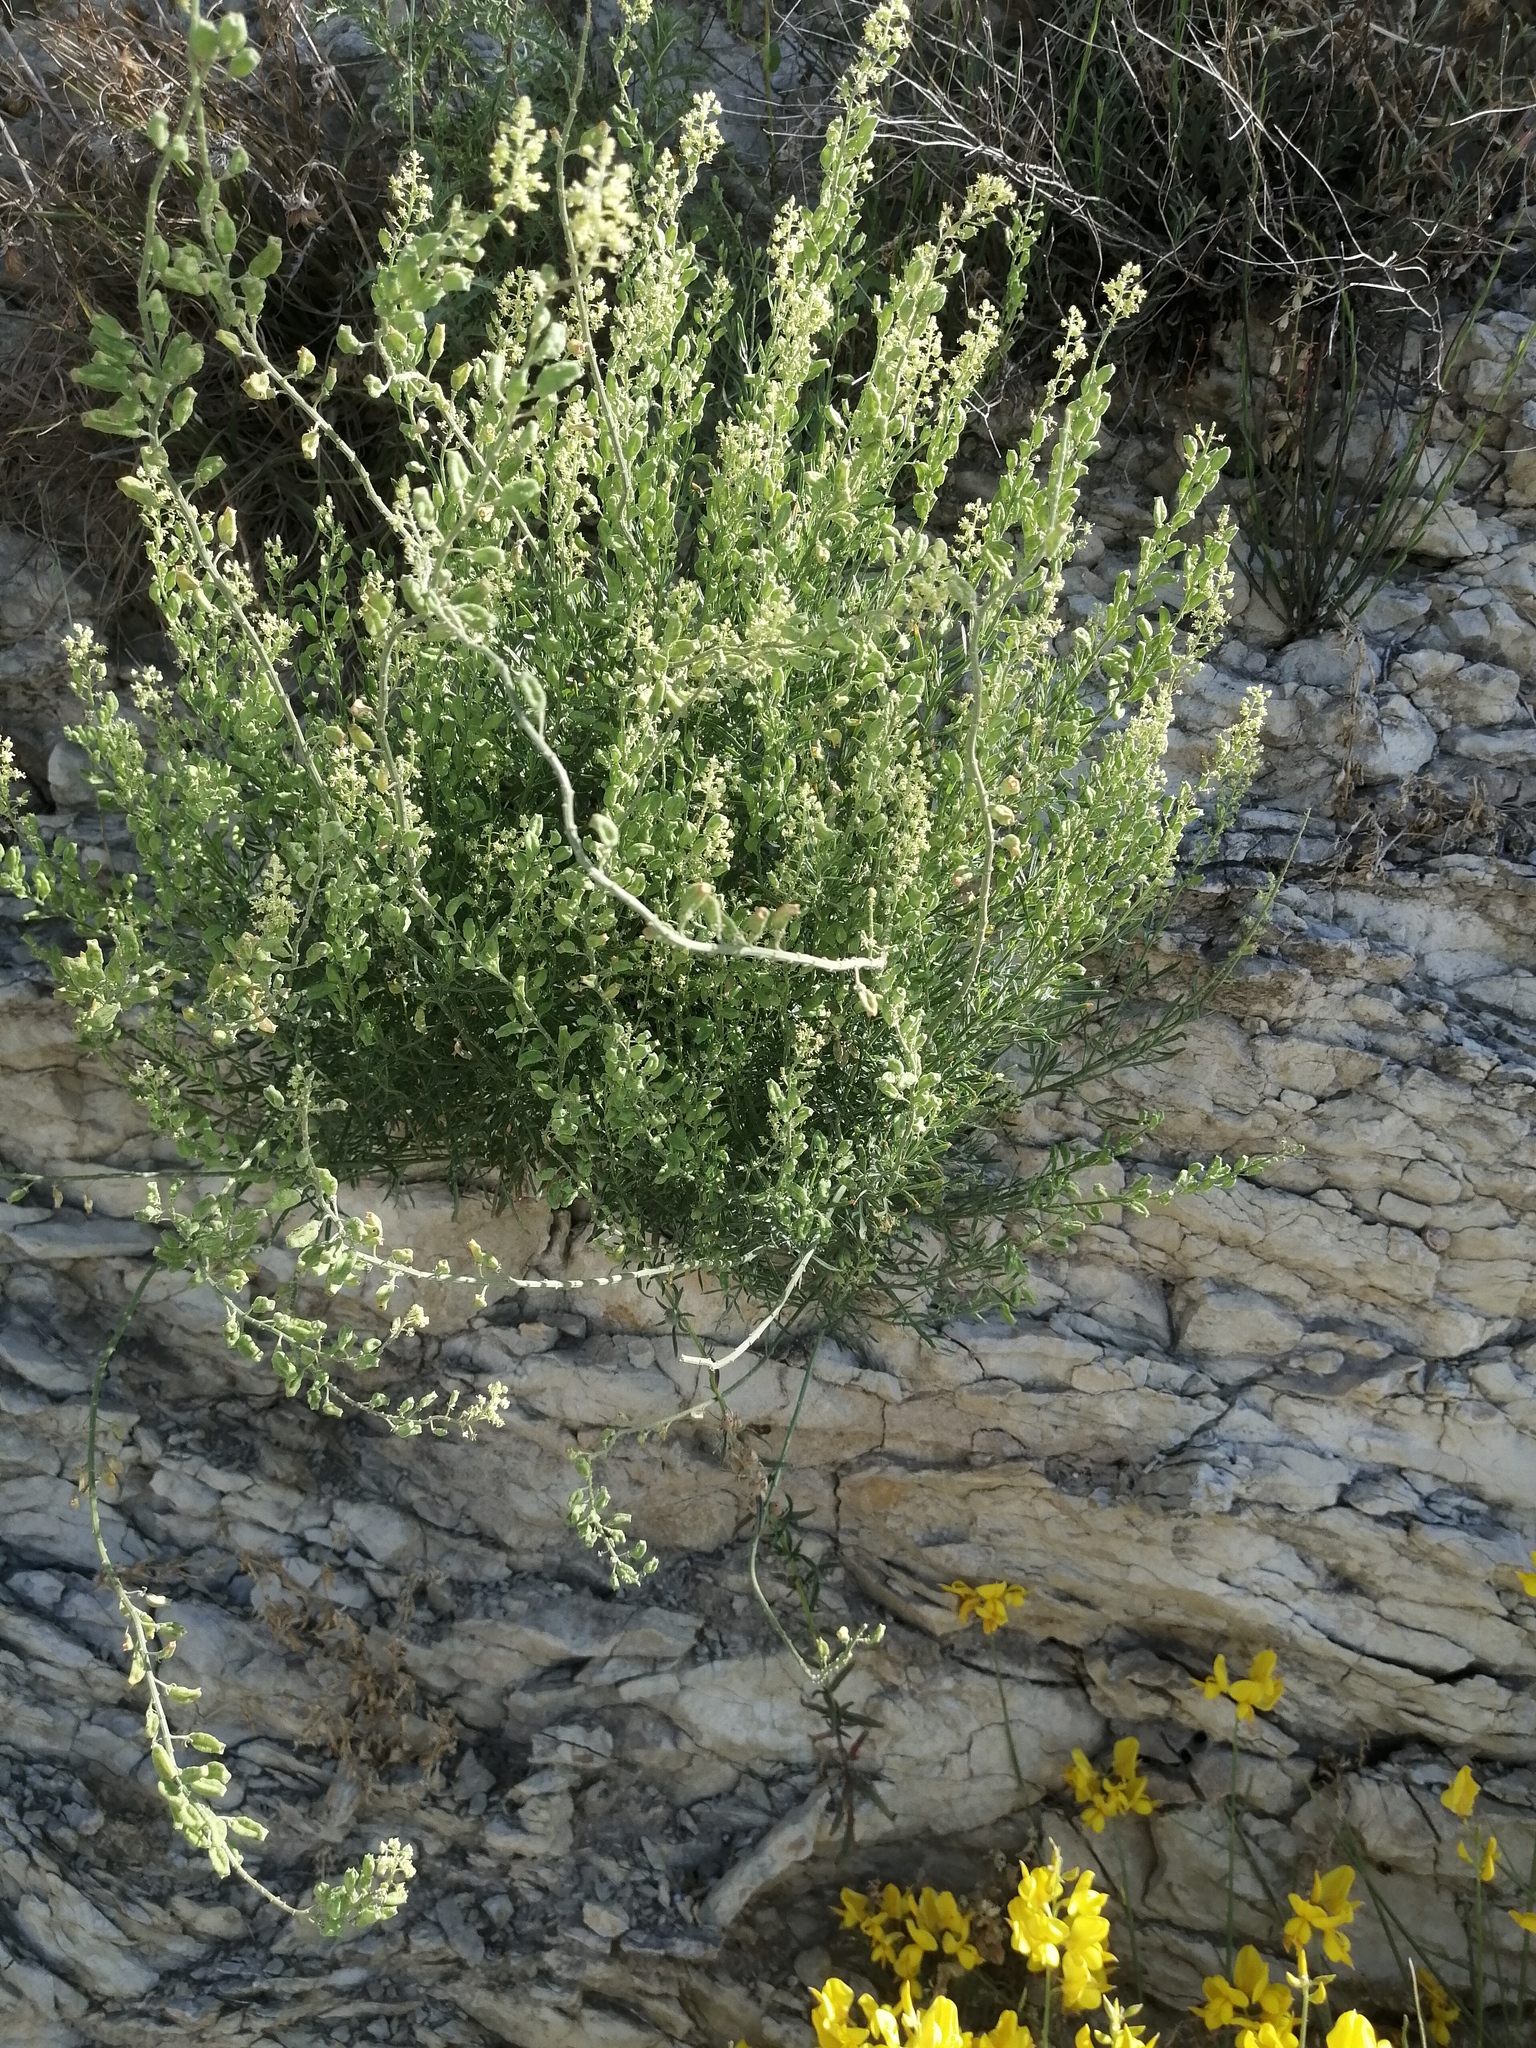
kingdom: Plantae
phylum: Tracheophyta
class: Magnoliopsida
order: Brassicales
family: Resedaceae
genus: Reseda
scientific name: Reseda lutea
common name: Wild mignonette
